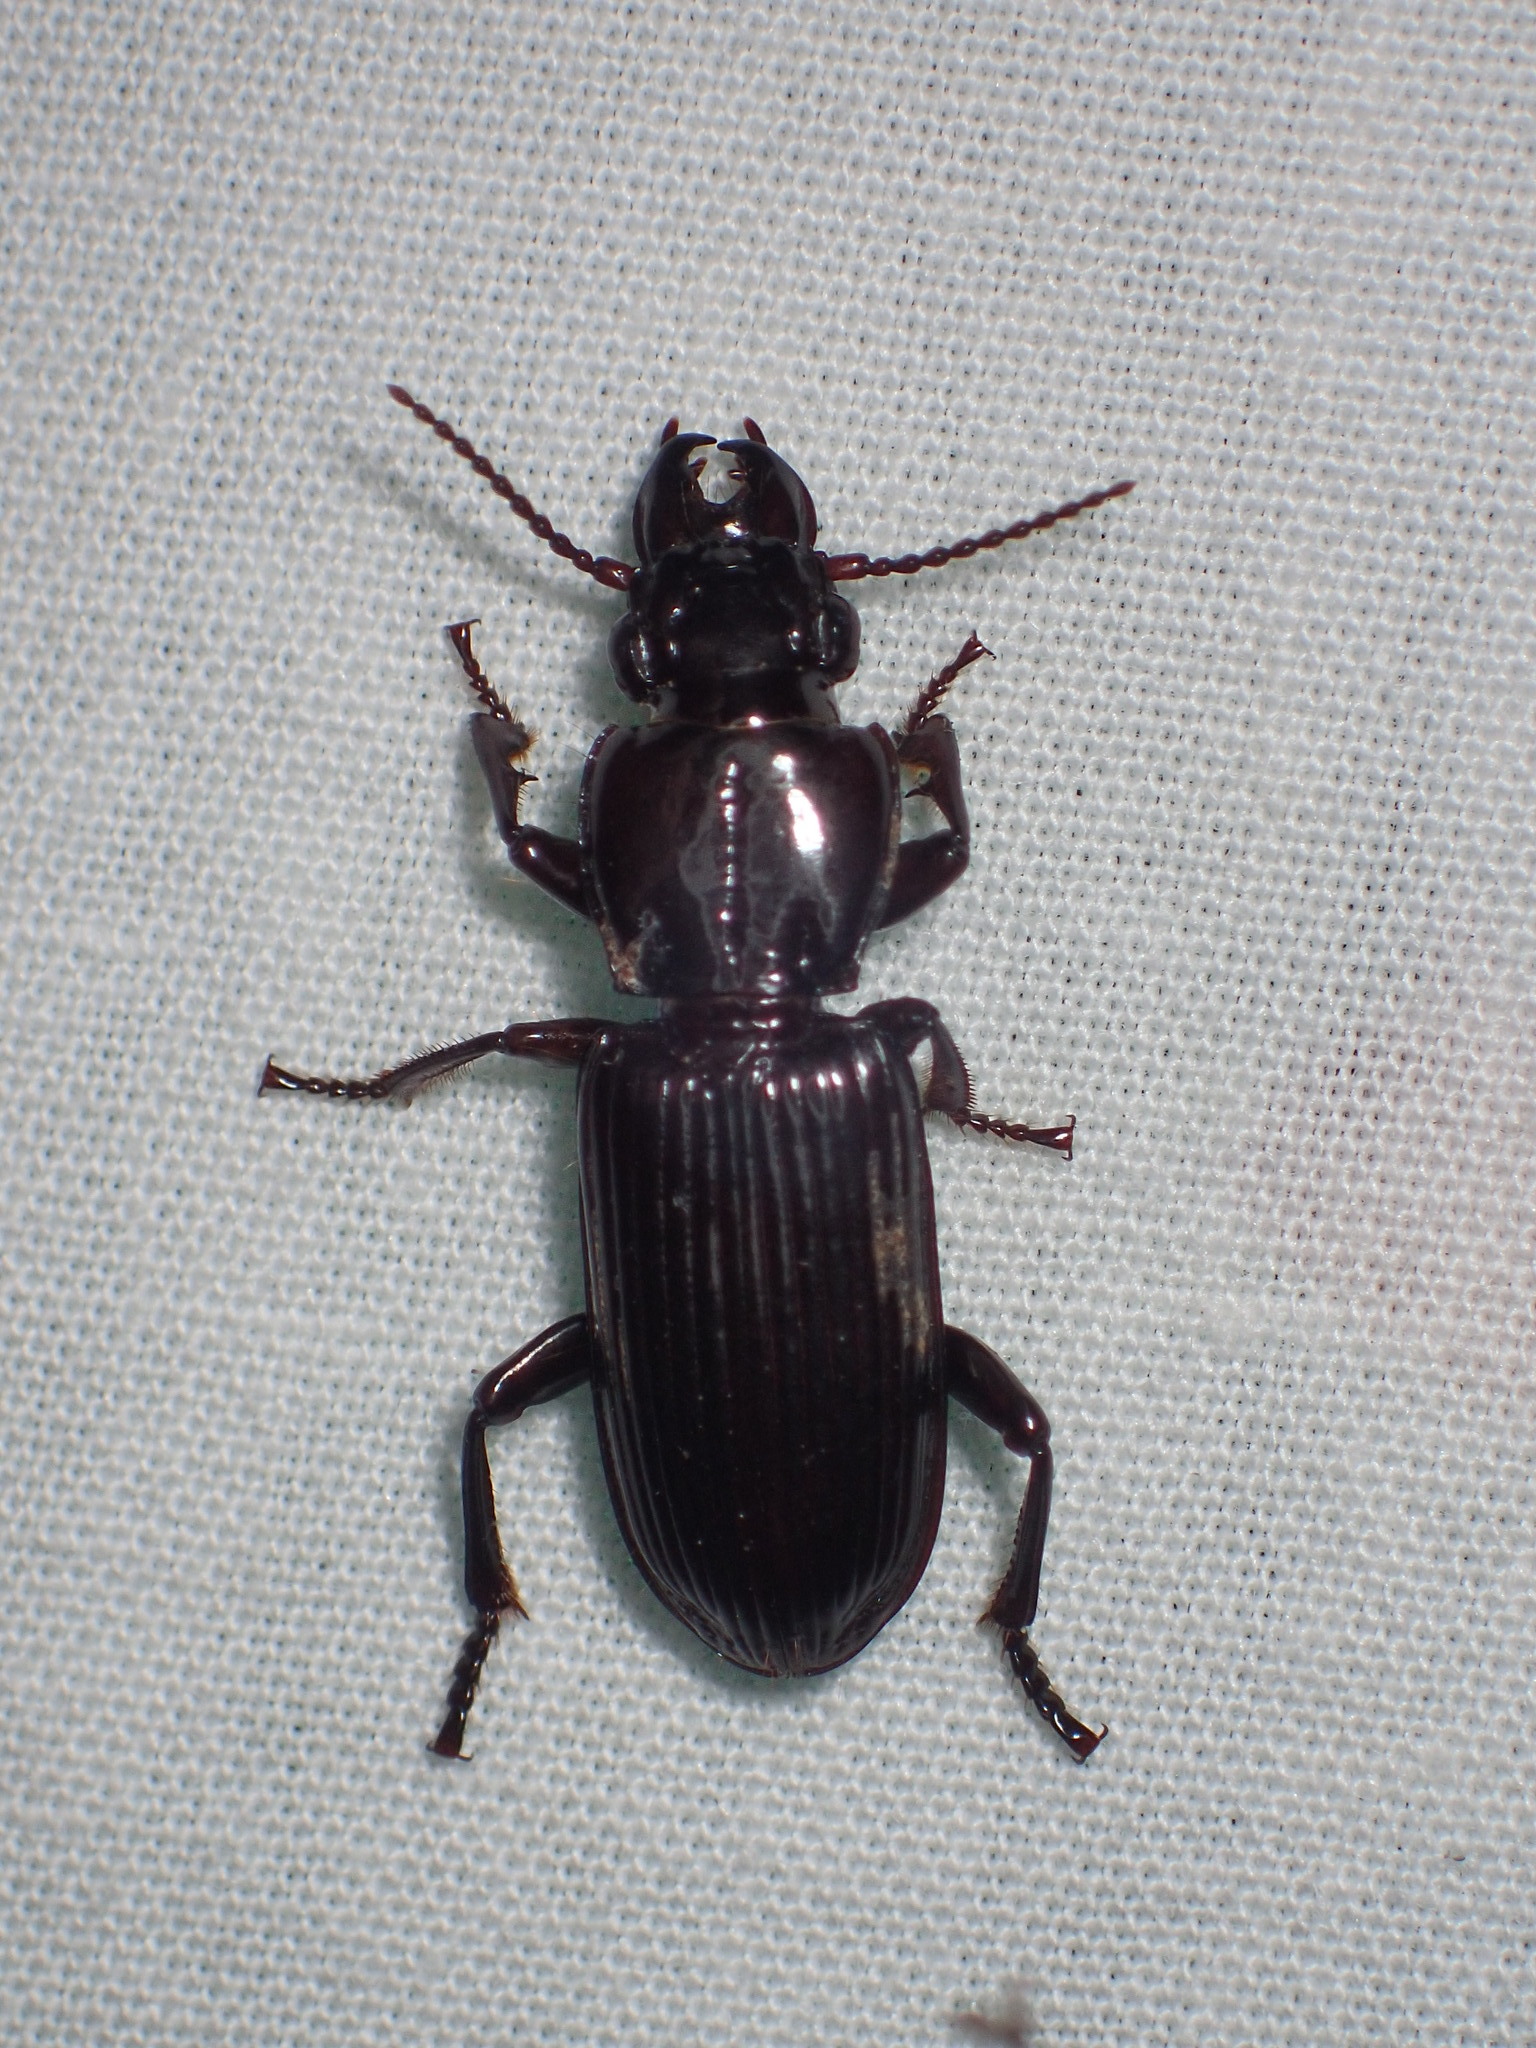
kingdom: Animalia
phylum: Arthropoda
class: Insecta
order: Coleoptera
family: Carabidae
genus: Morion
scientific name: Morion monilicornis
